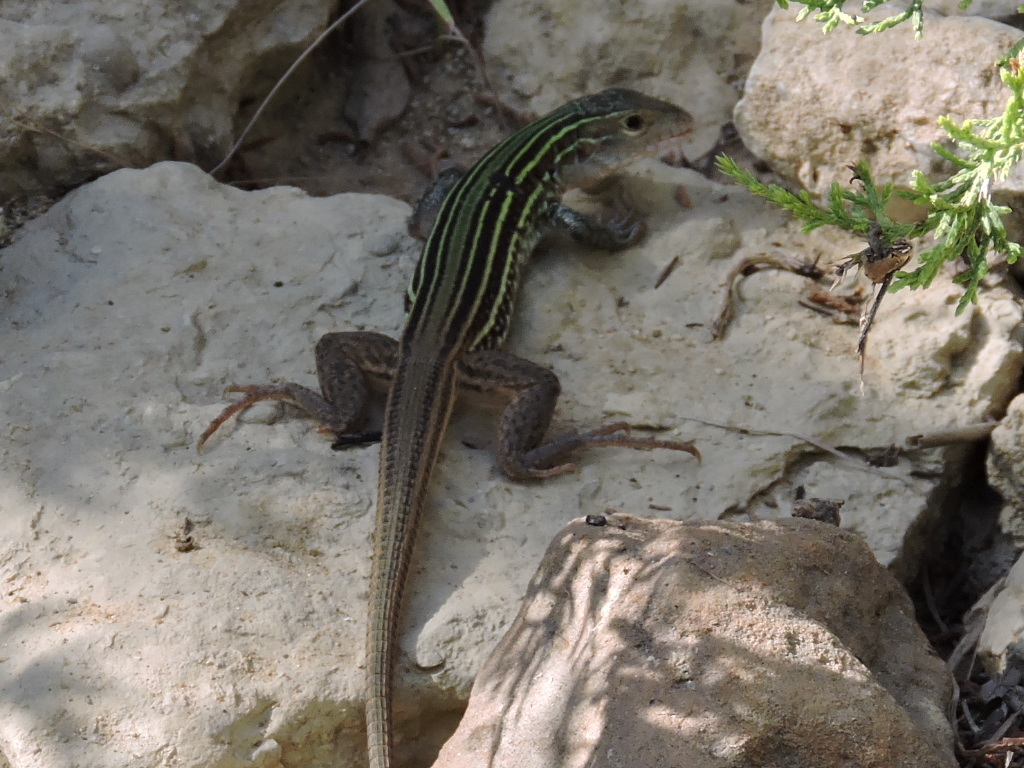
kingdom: Animalia
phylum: Chordata
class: Squamata
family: Teiidae
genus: Aspidoscelis
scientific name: Aspidoscelis gularis
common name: Eastern spotted whiptail
